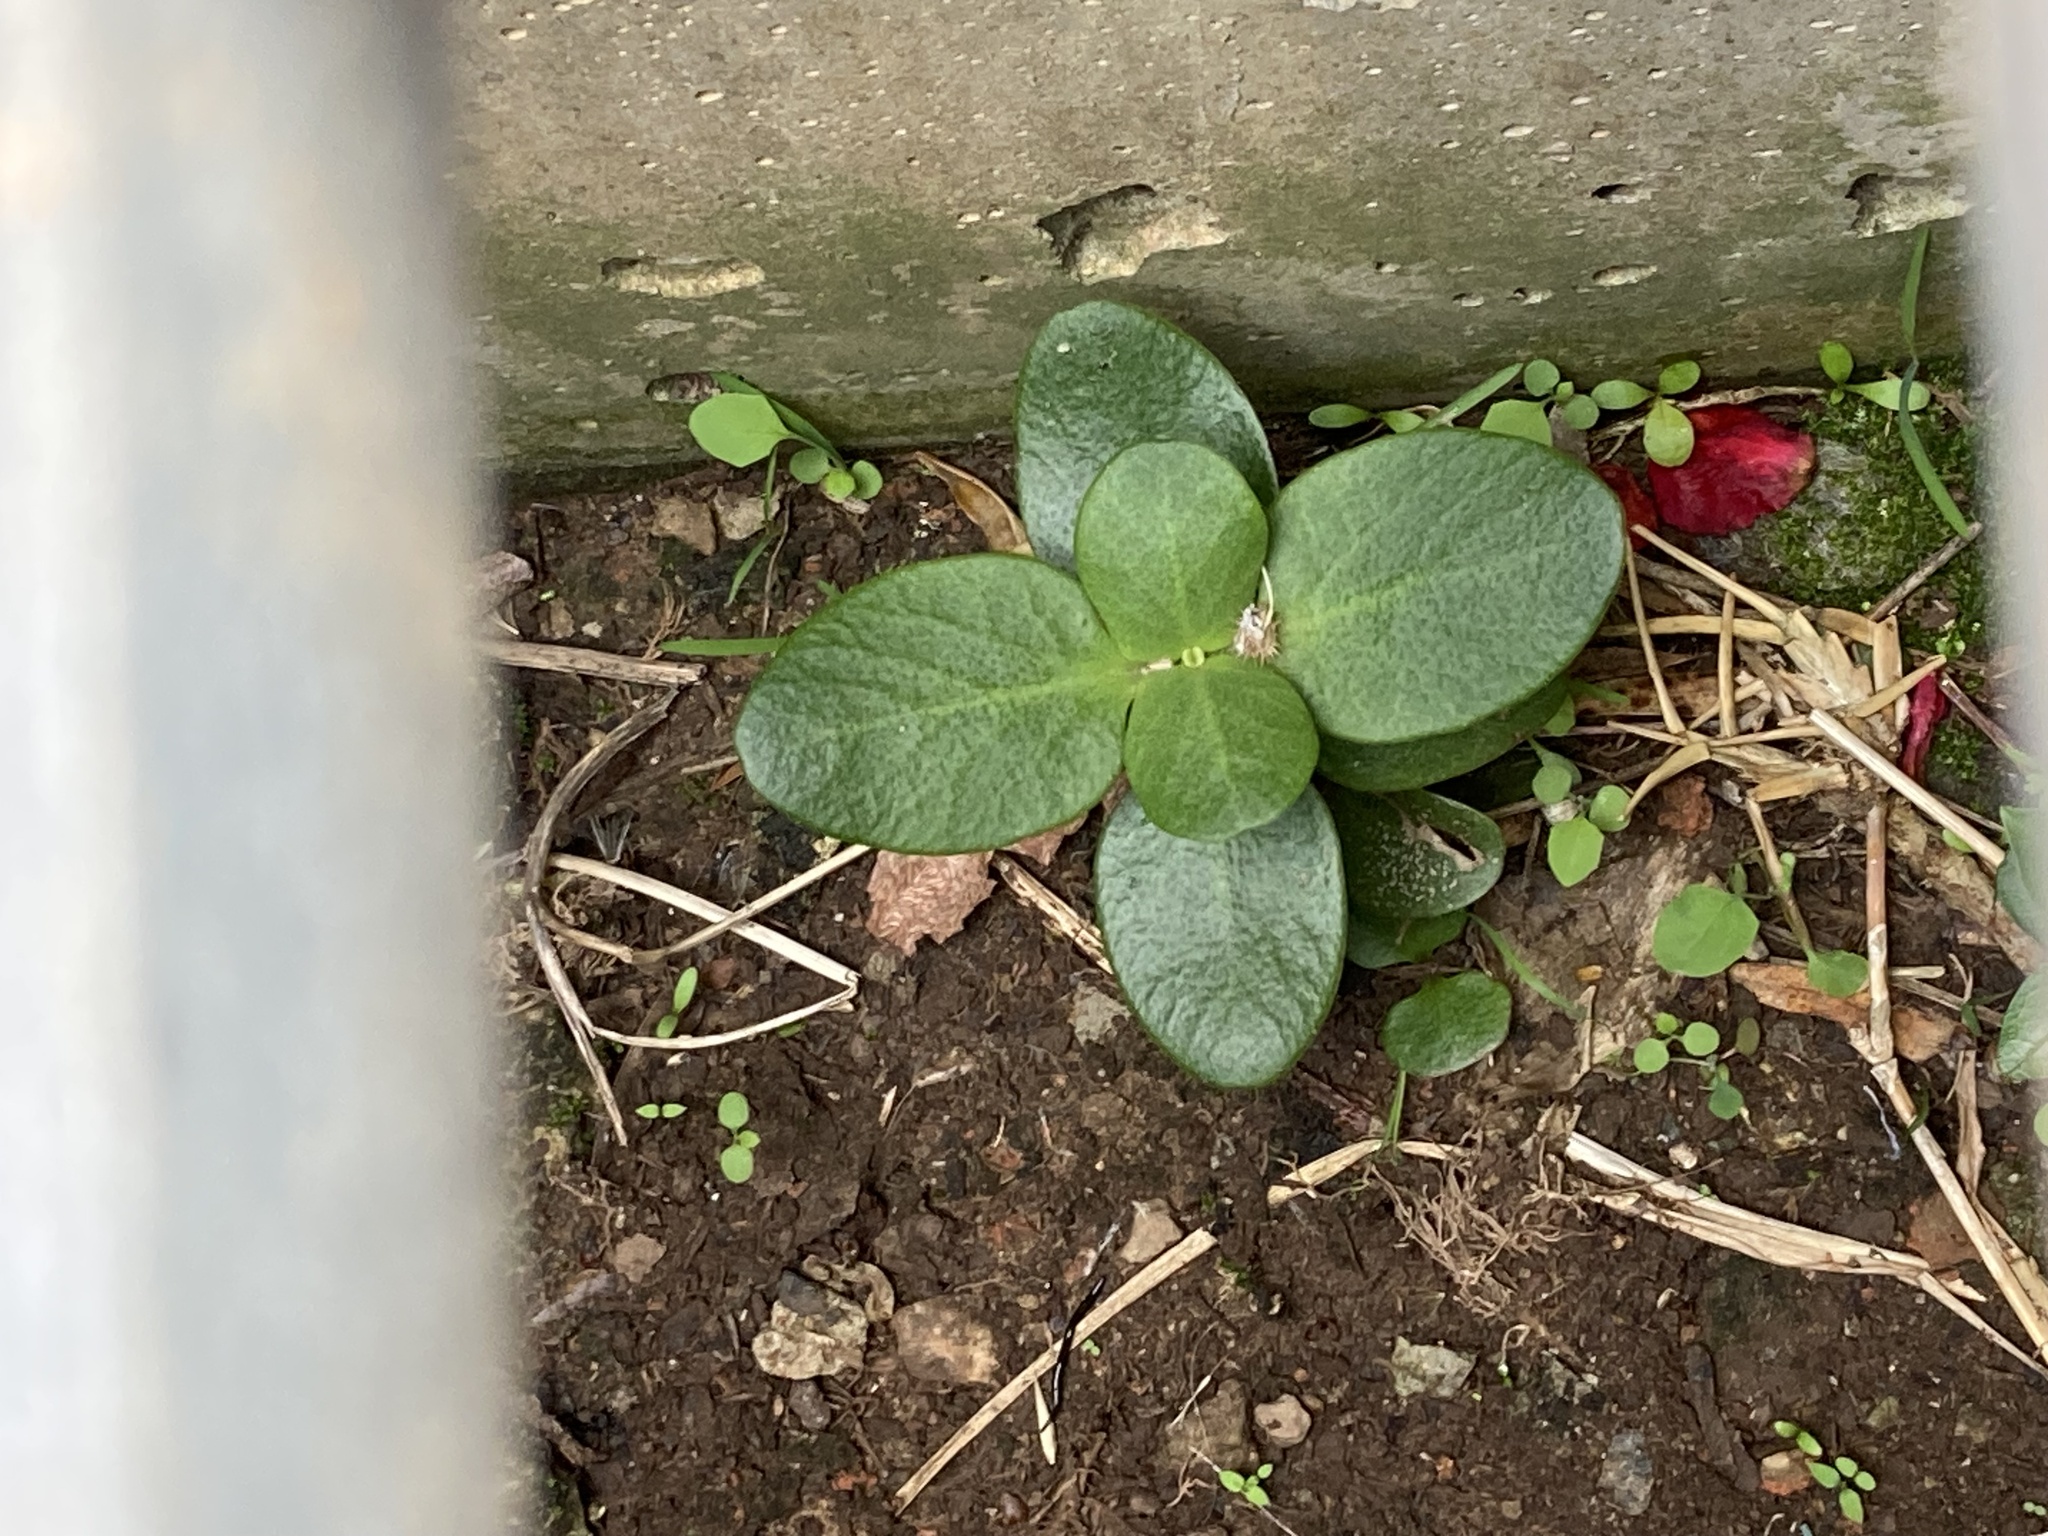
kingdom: Plantae
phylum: Tracheophyta
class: Magnoliopsida
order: Saxifragales
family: Crassulaceae
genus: Crassula
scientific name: Crassula multicava
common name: Cape province pygmyweed
